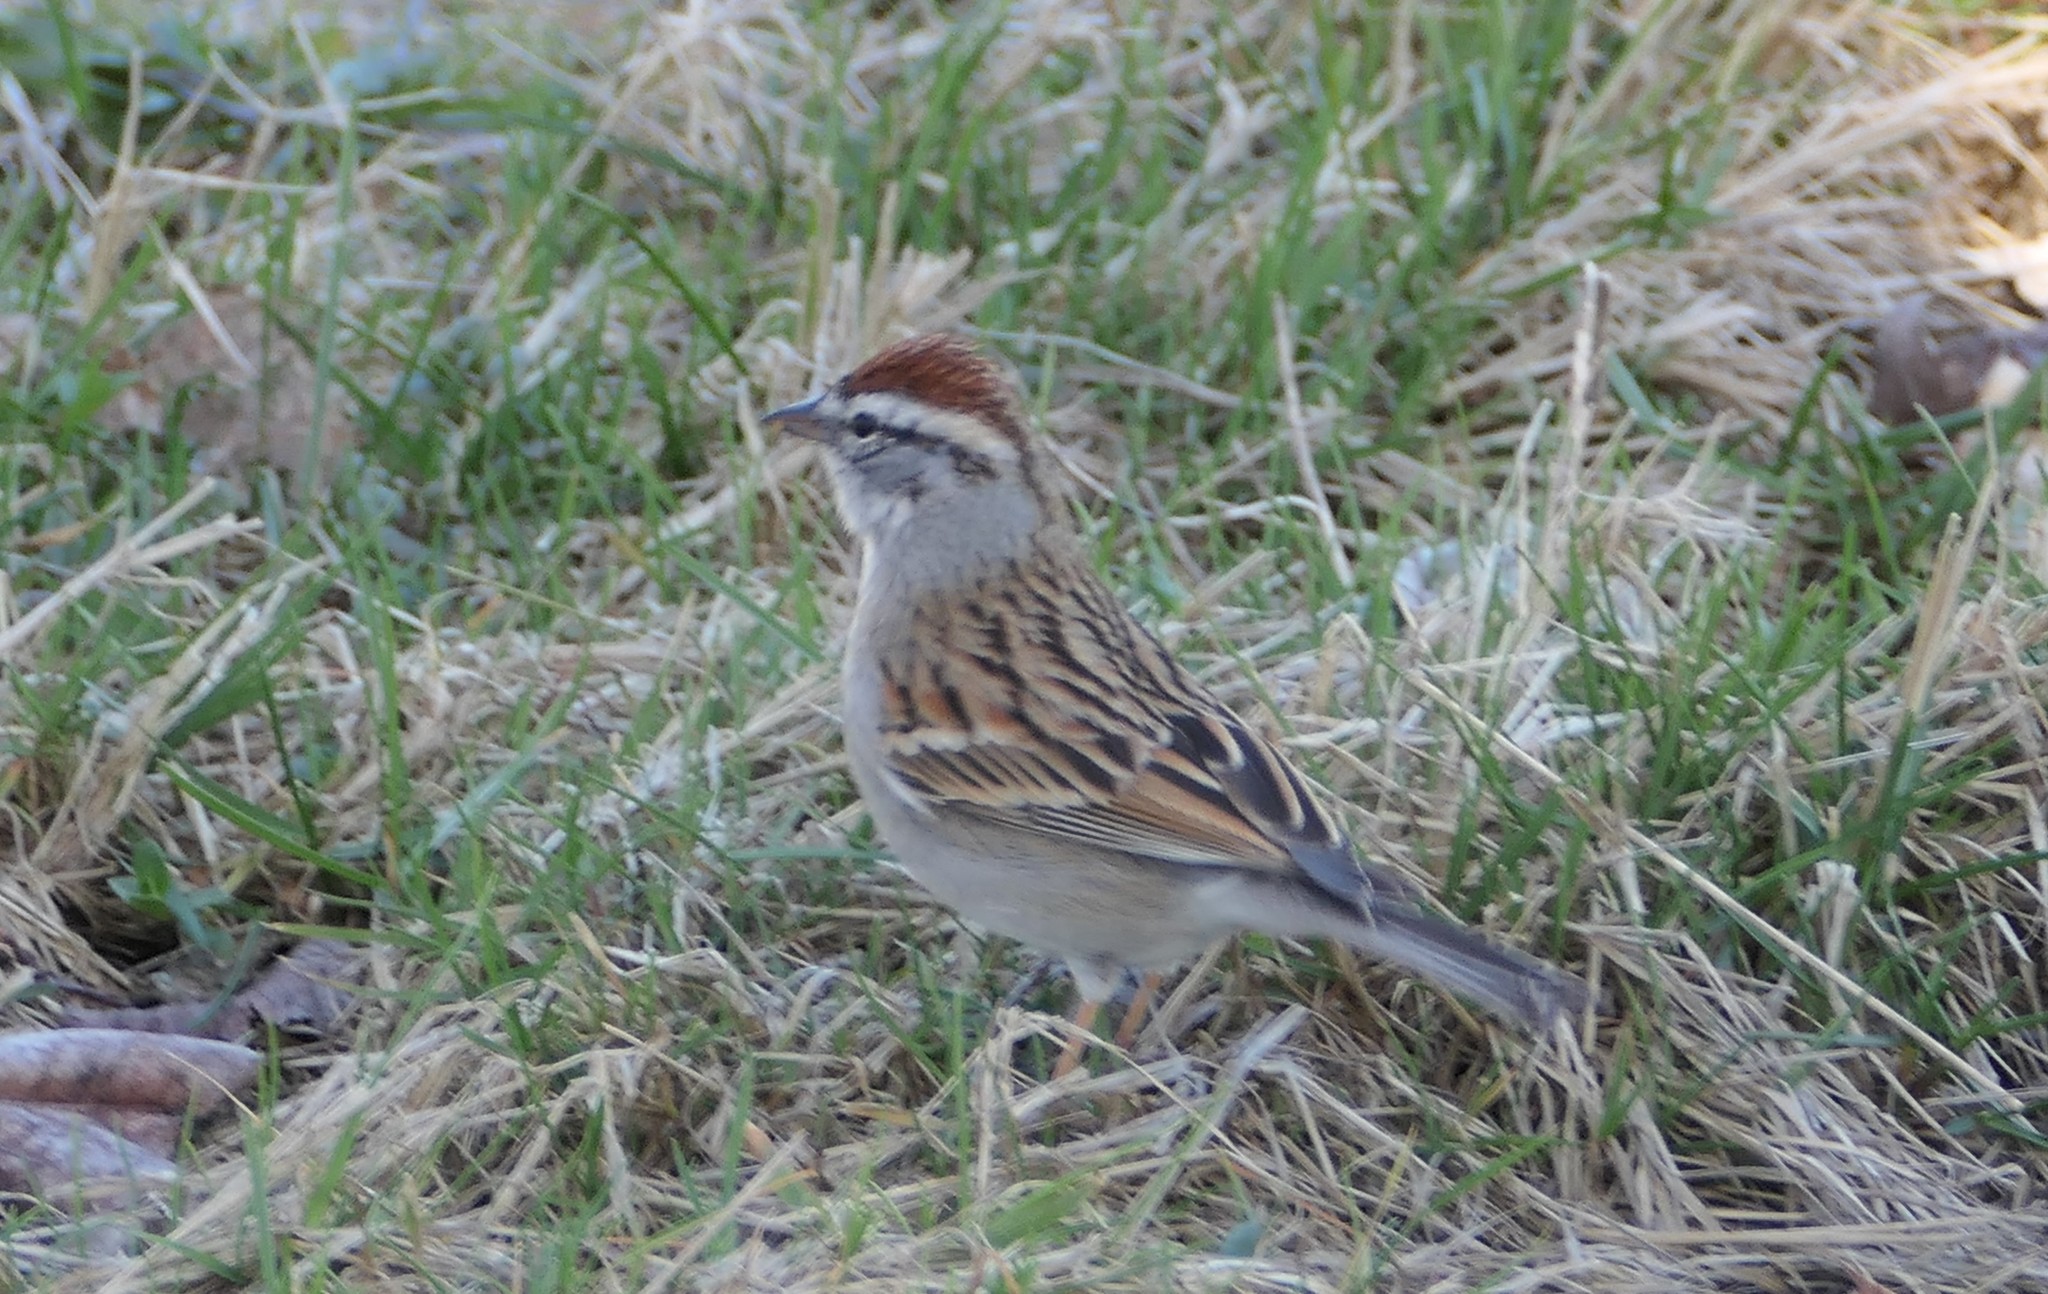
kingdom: Animalia
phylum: Chordata
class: Aves
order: Passeriformes
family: Passerellidae
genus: Spizella
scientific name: Spizella passerina
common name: Chipping sparrow
